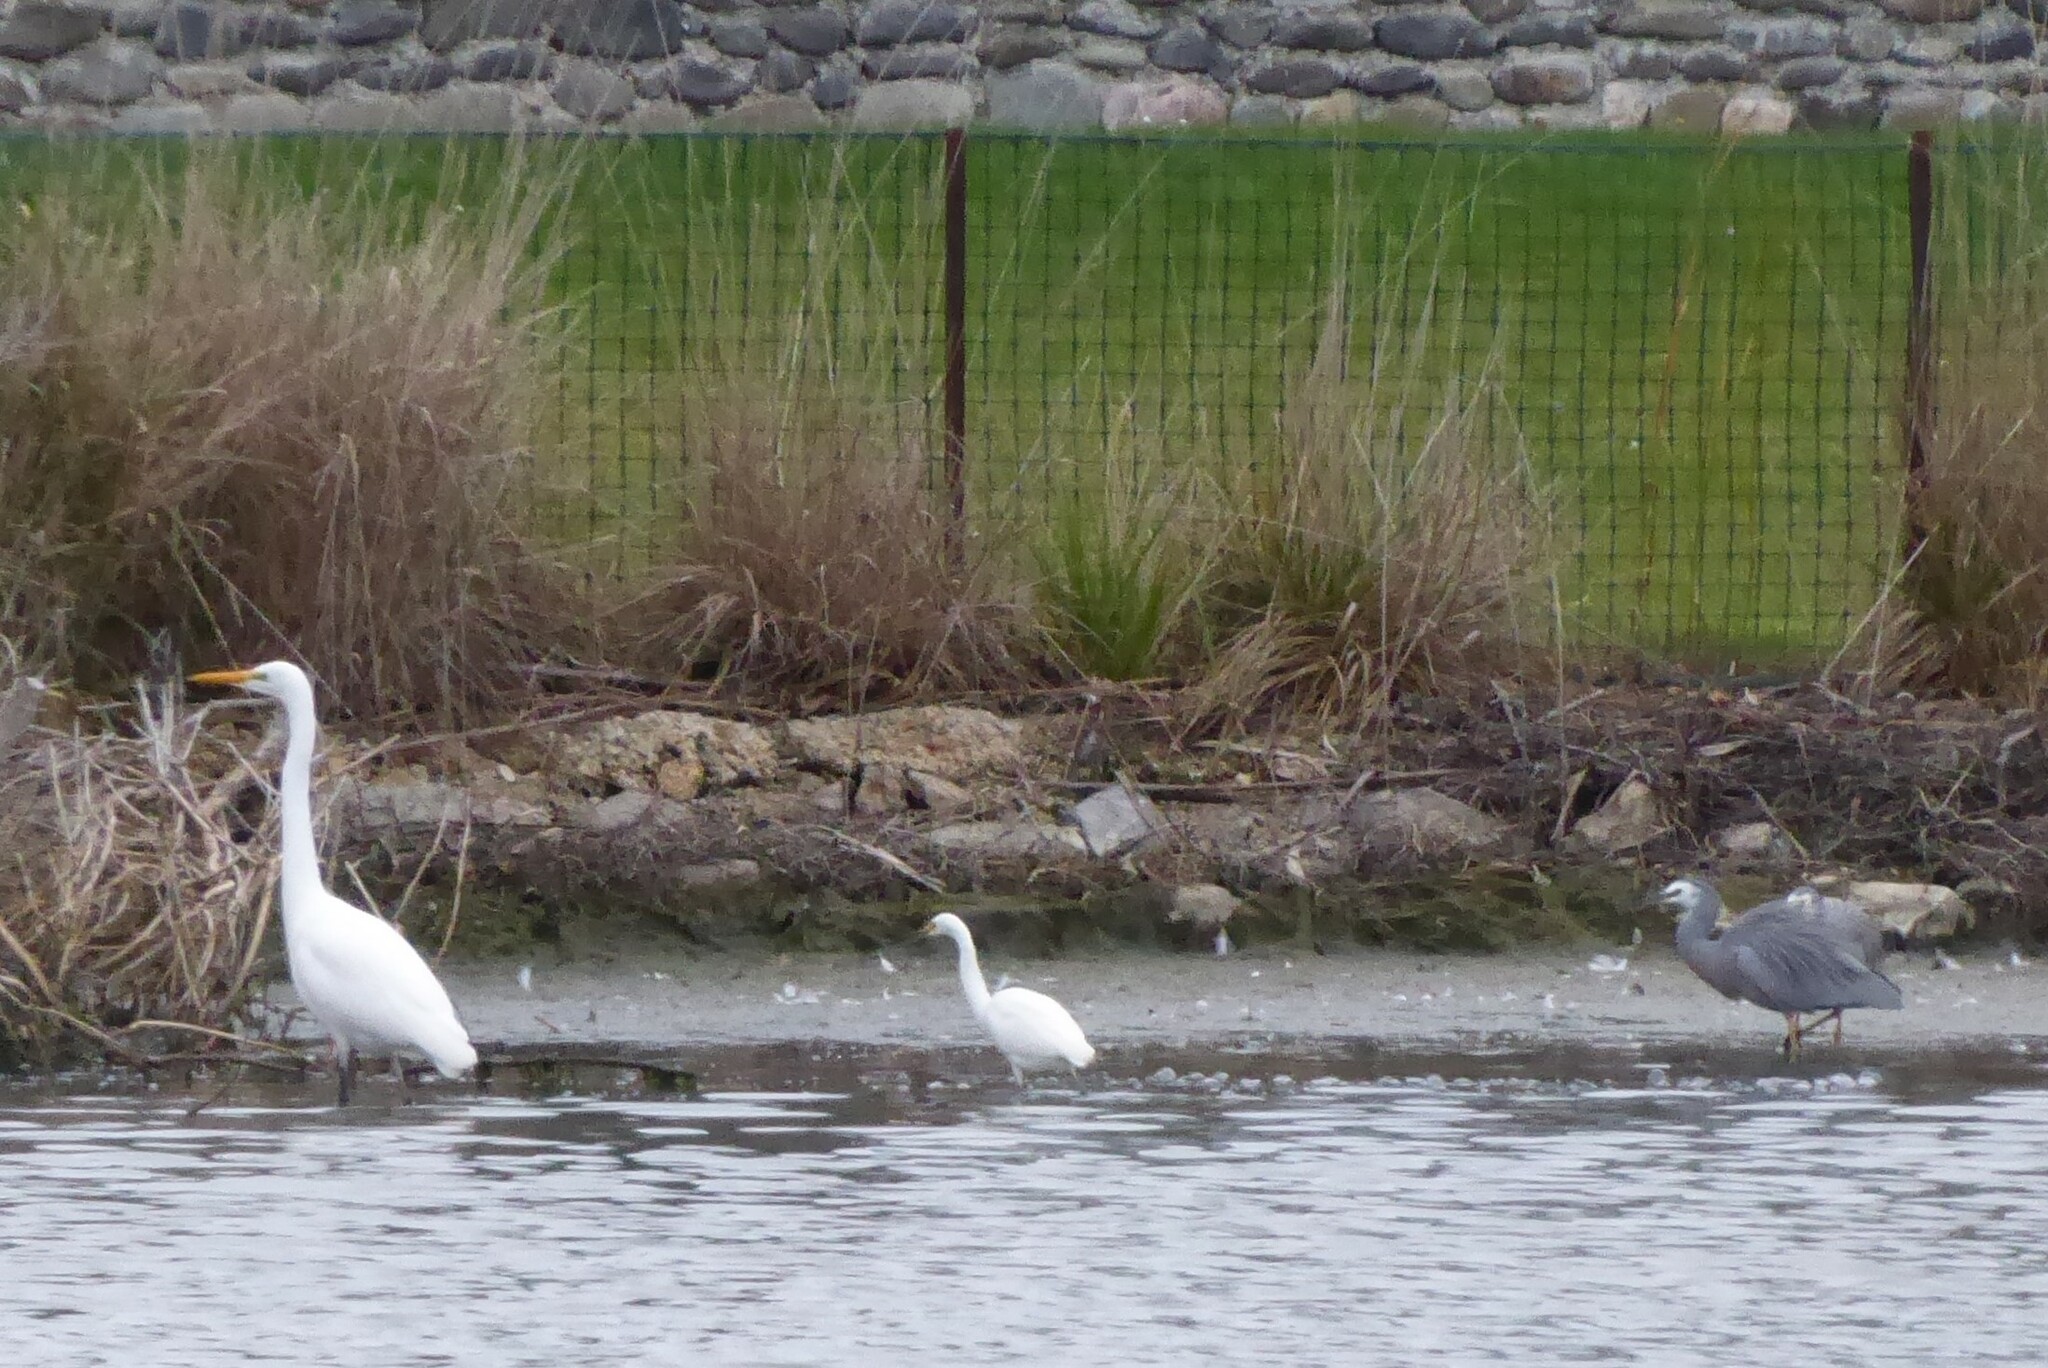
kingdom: Animalia
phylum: Chordata
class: Aves
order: Pelecaniformes
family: Ardeidae
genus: Egretta
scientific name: Egretta garzetta
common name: Little egret
